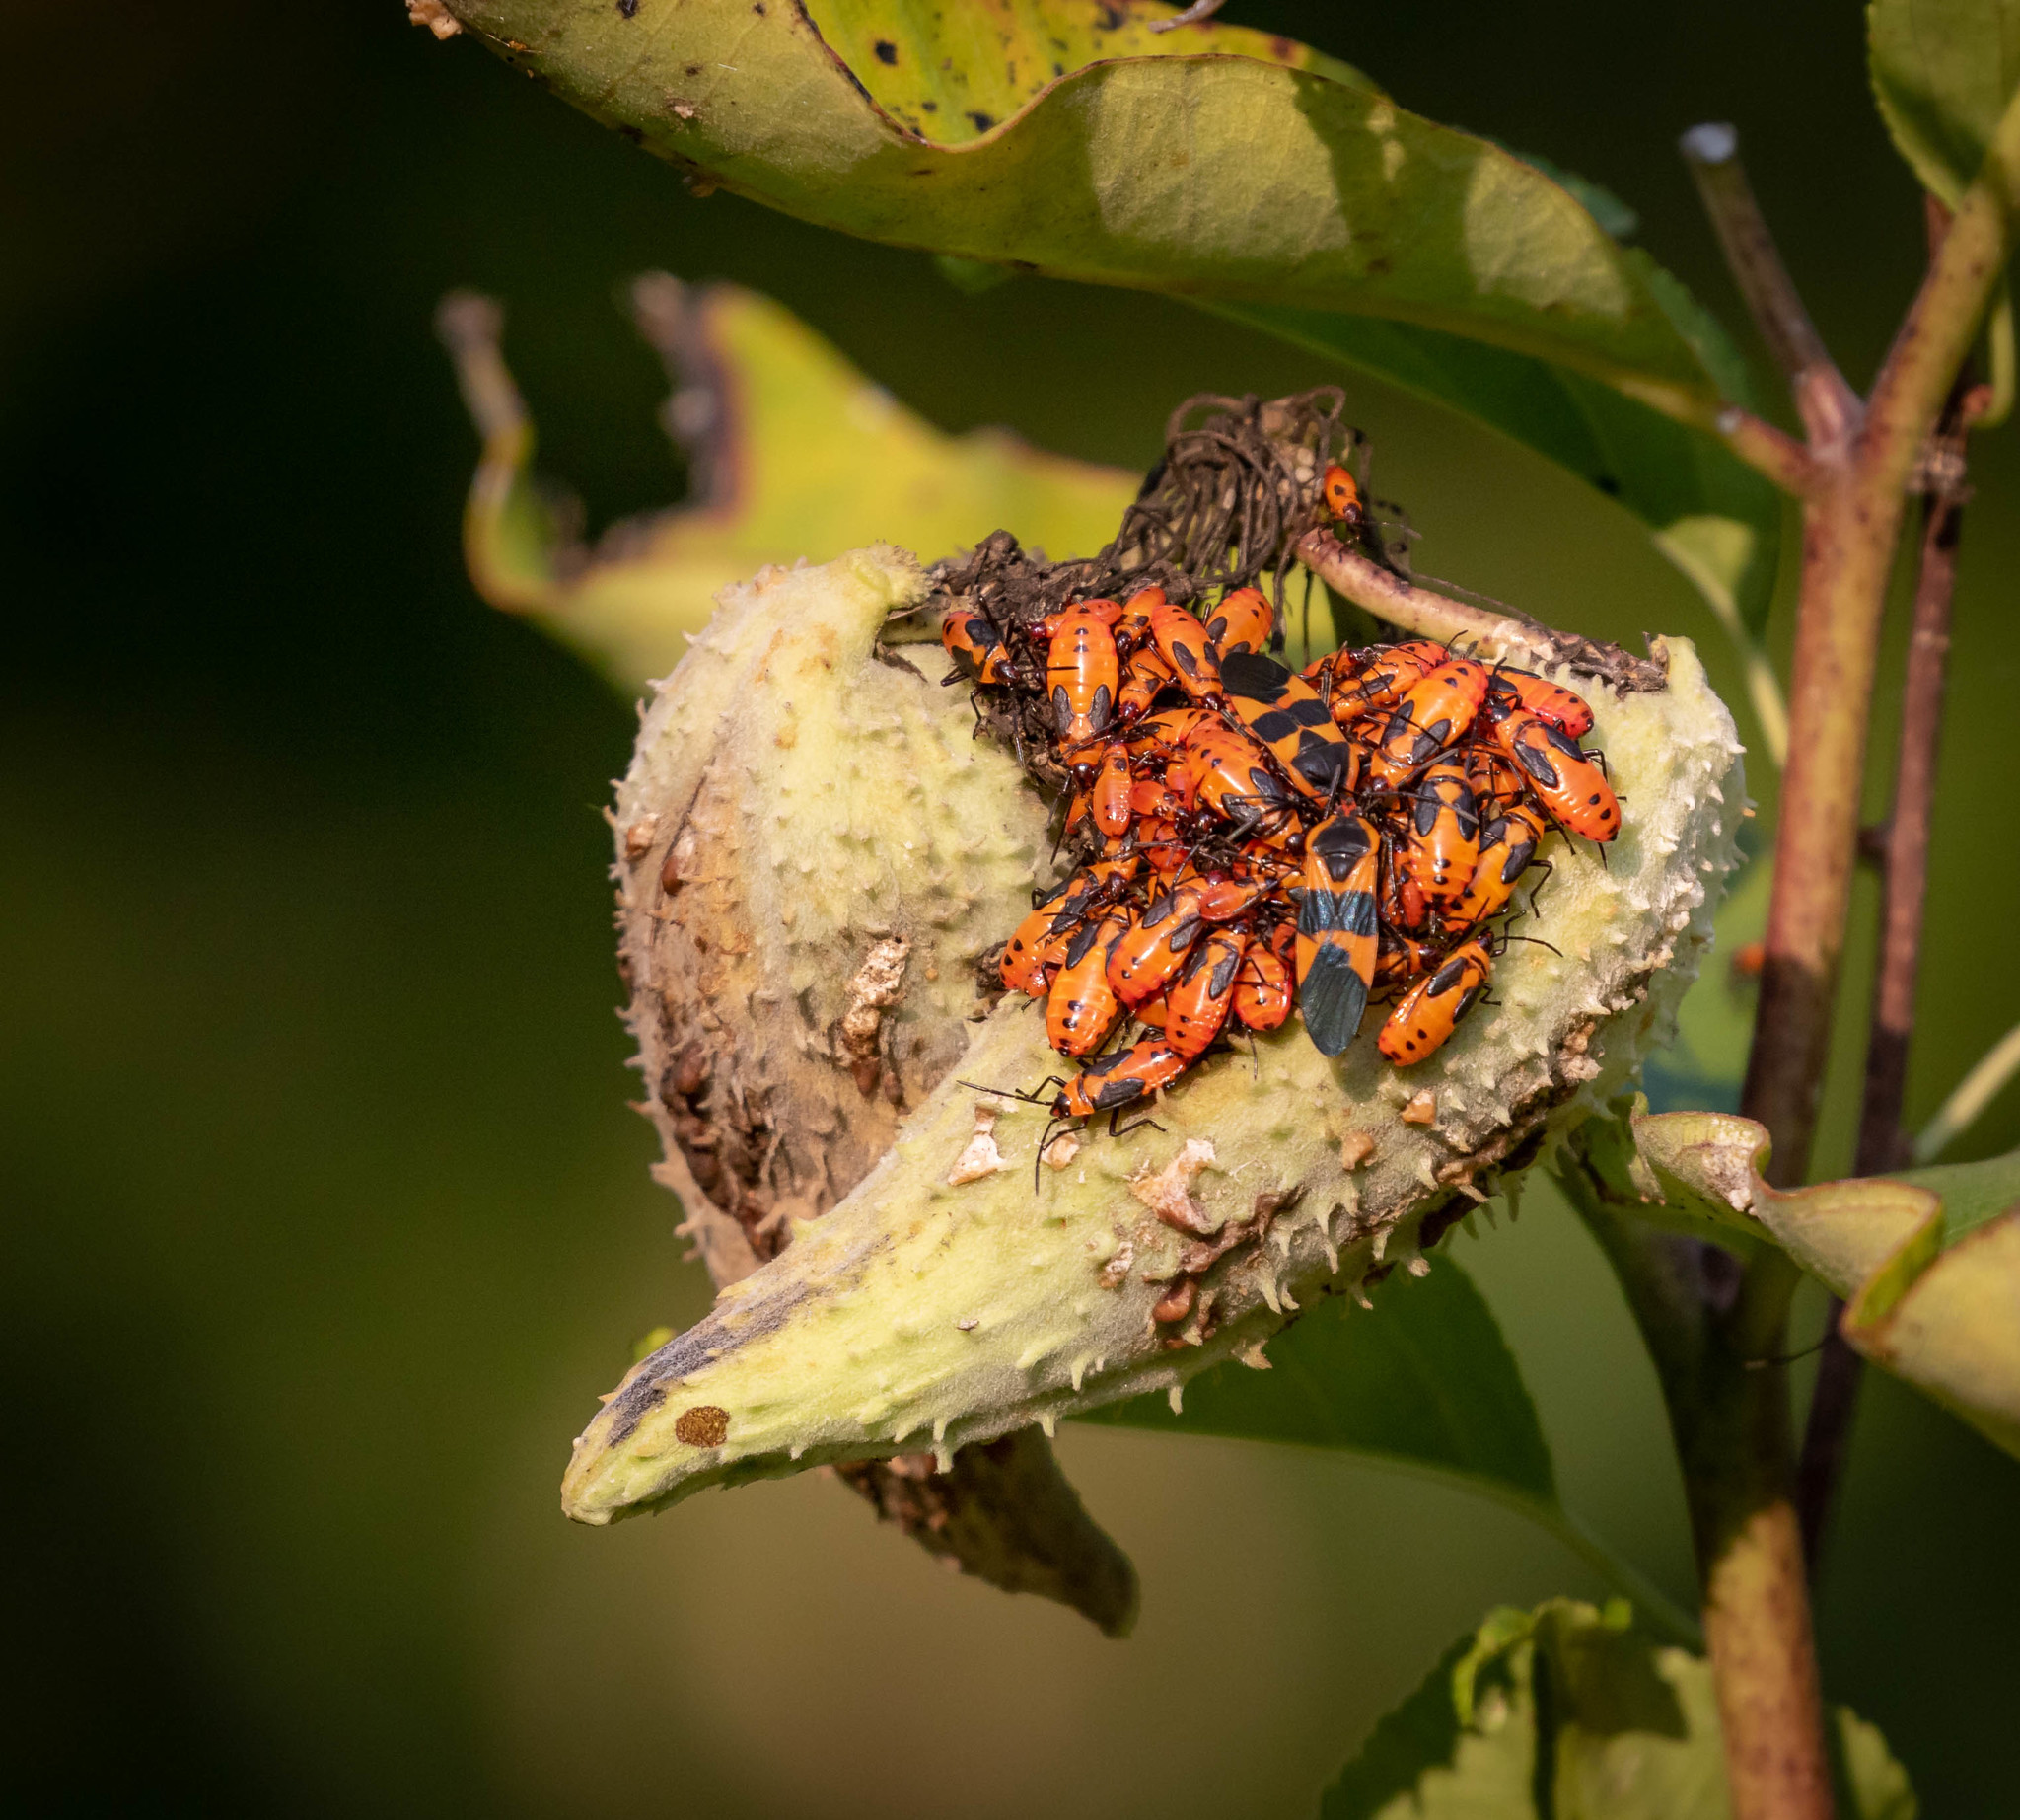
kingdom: Animalia
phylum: Arthropoda
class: Insecta
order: Hemiptera
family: Lygaeidae
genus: Oncopeltus
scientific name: Oncopeltus fasciatus
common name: Large milkweed bug
